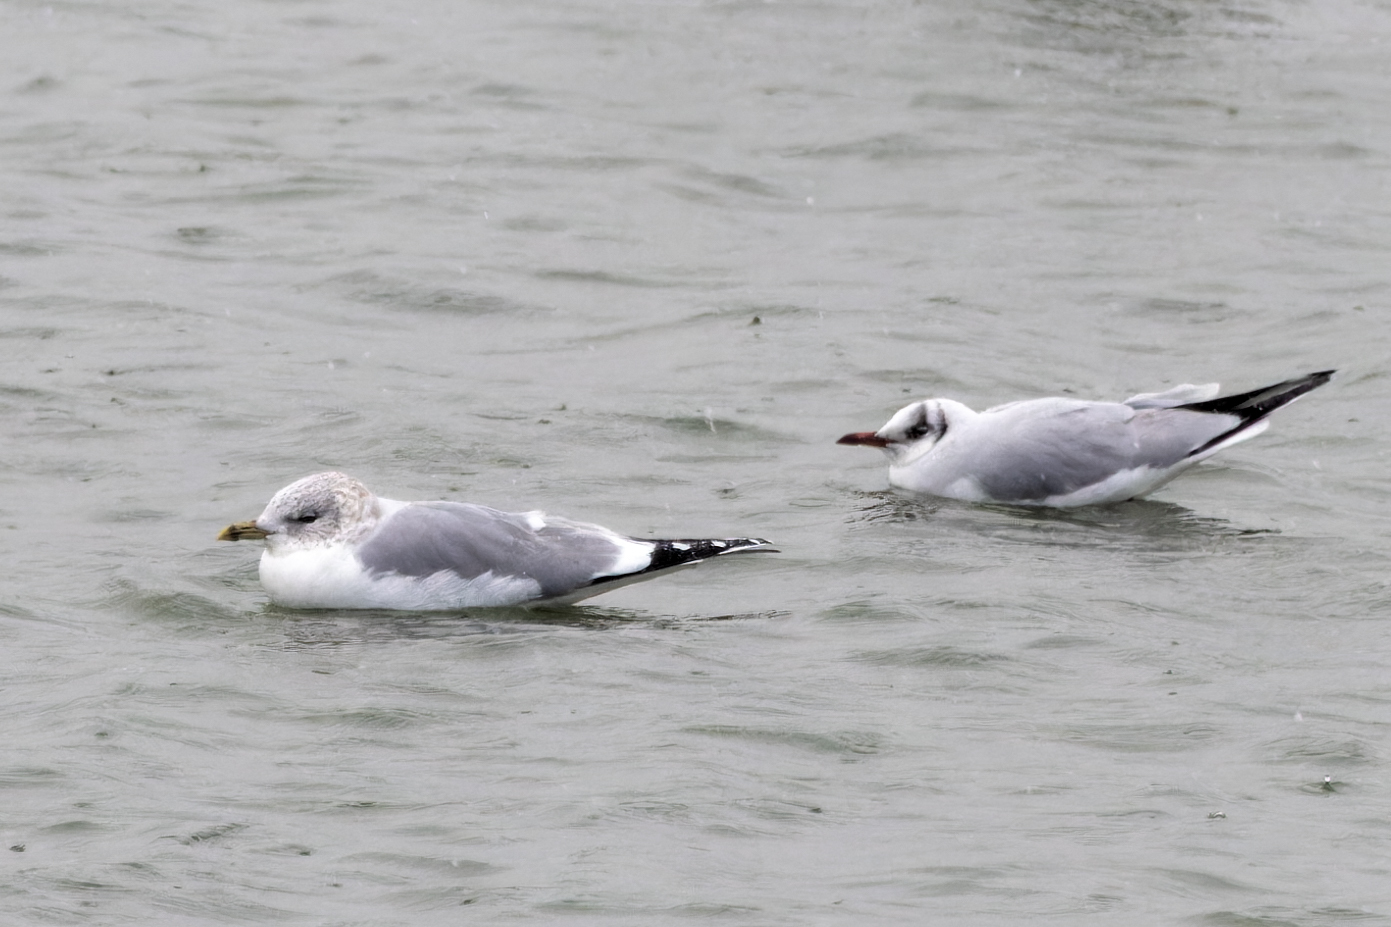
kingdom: Animalia
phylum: Chordata
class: Aves
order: Charadriiformes
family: Laridae
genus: Larus
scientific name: Larus canus
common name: Mew gull
